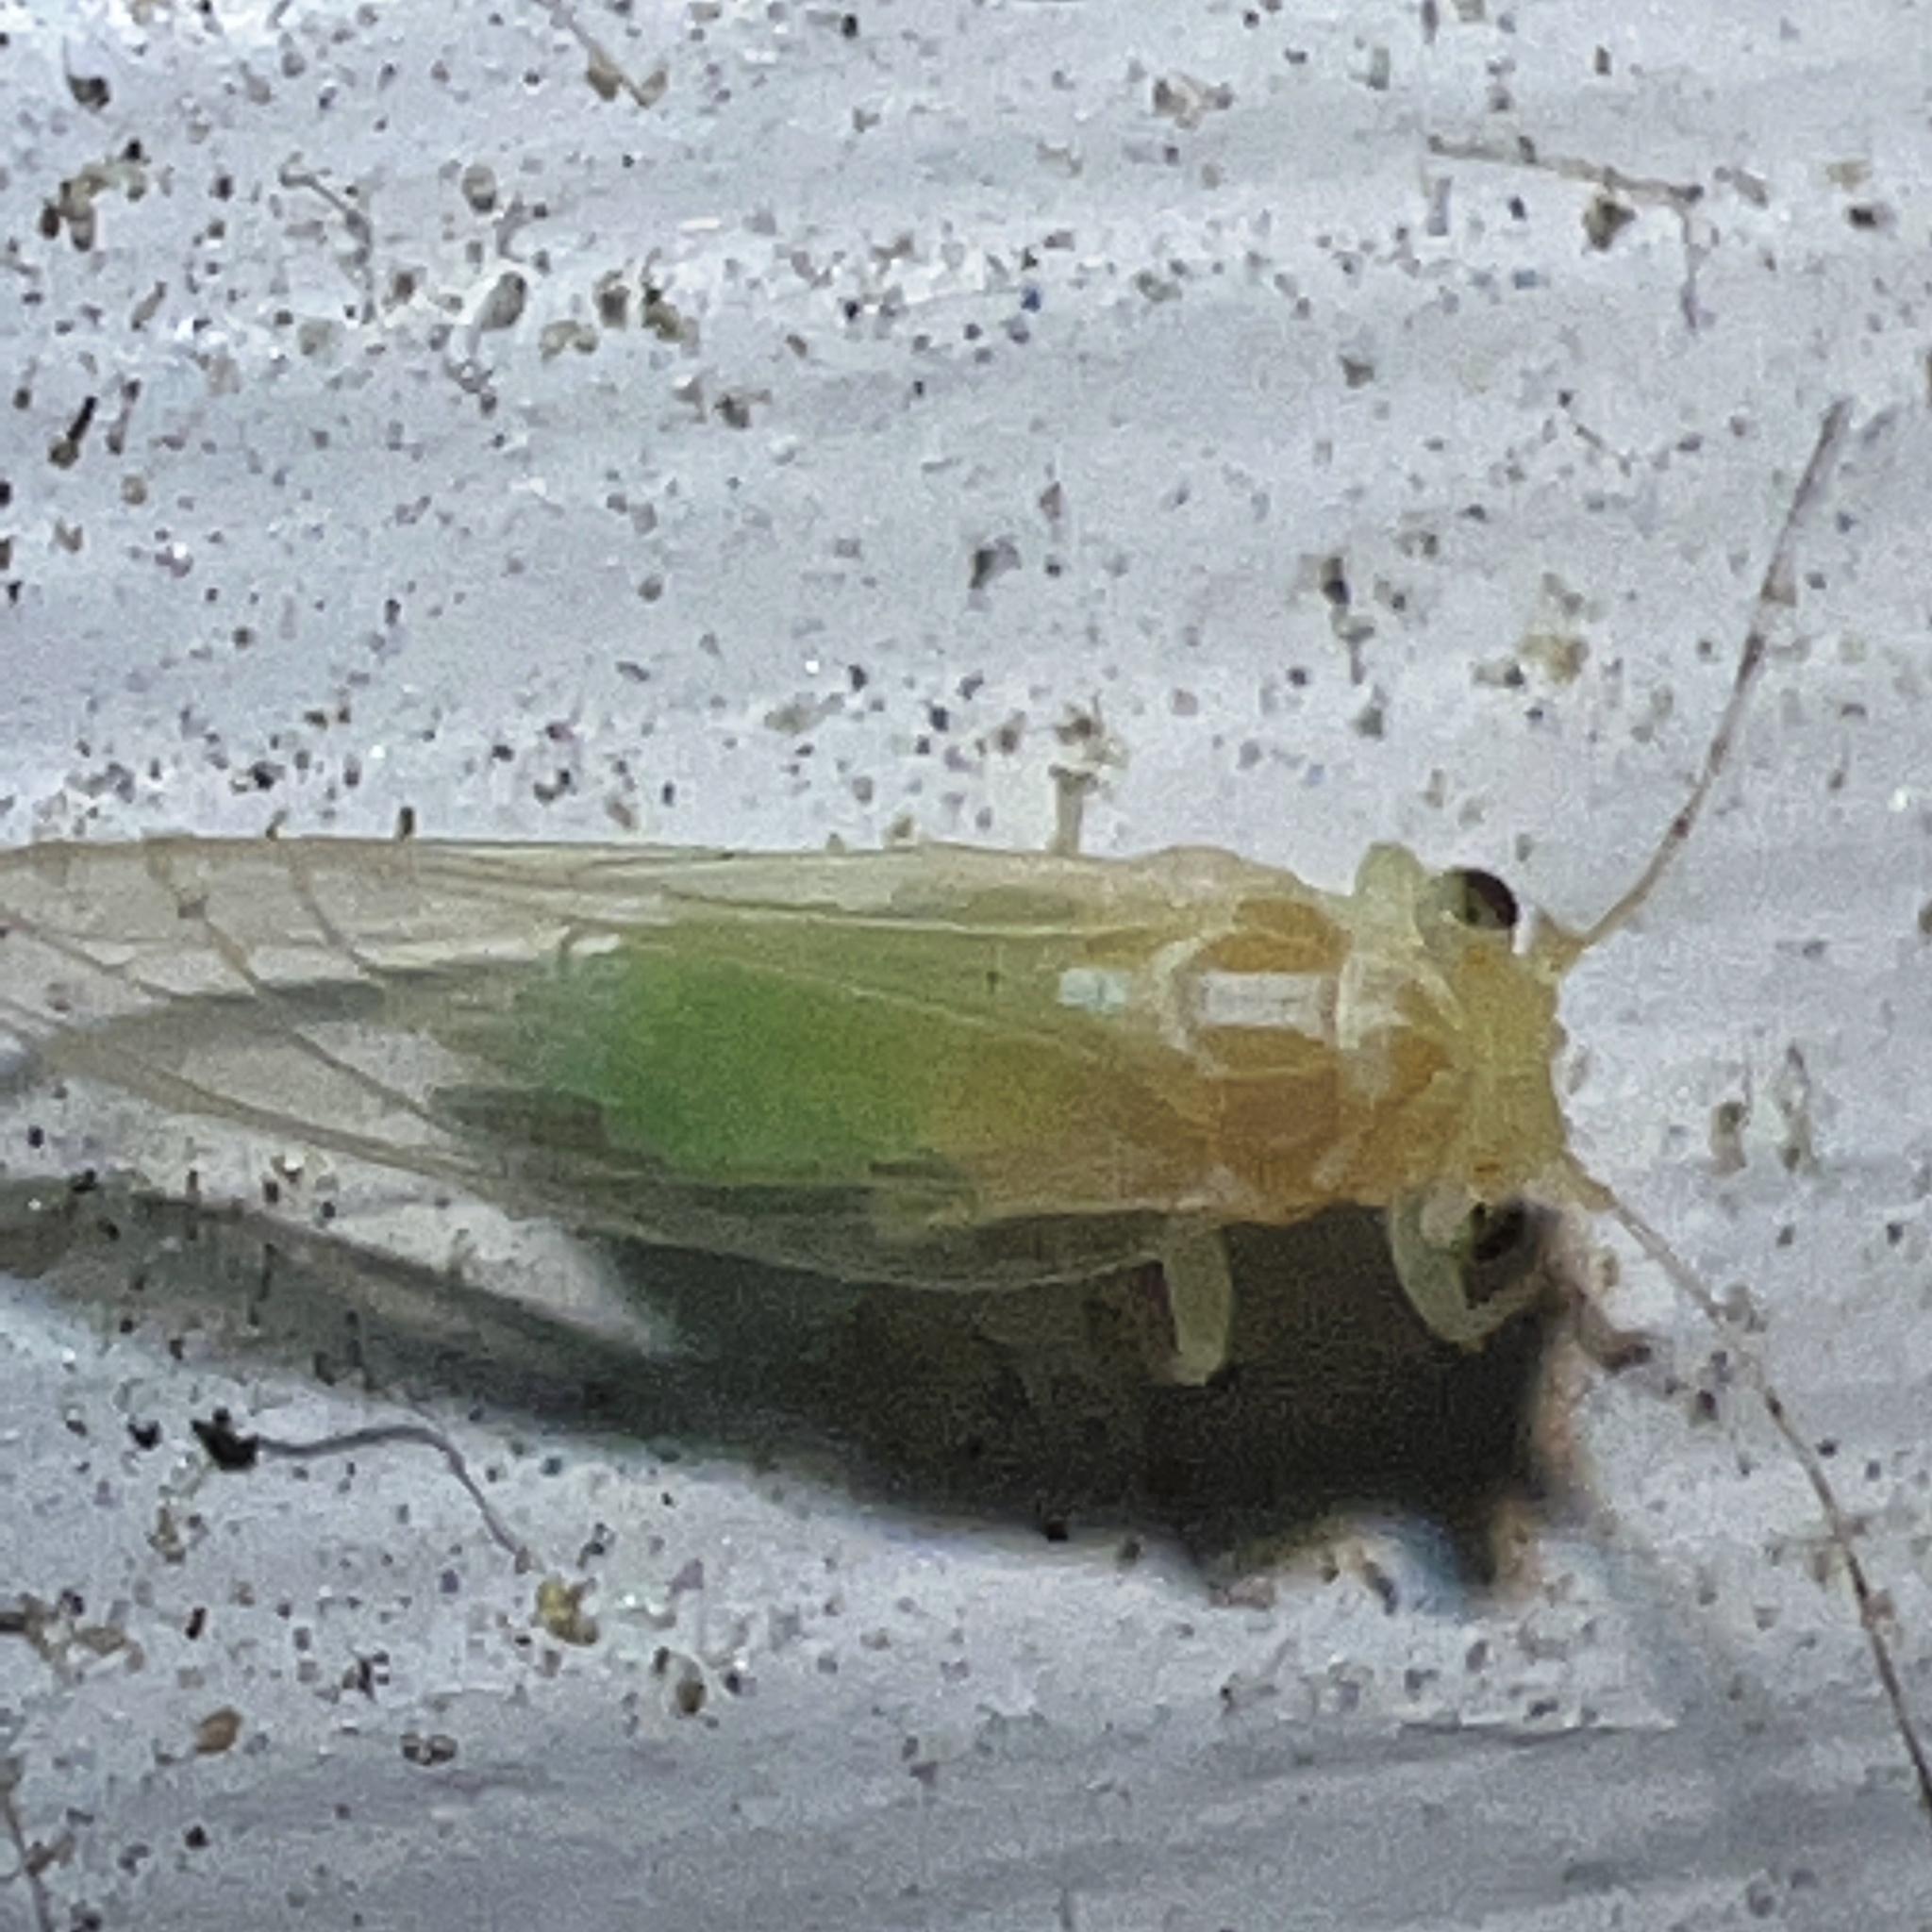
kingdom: Animalia
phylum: Arthropoda
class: Insecta
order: Hemiptera
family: Psyllidae
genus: Cacopsylla
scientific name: Cacopsylla annulata
